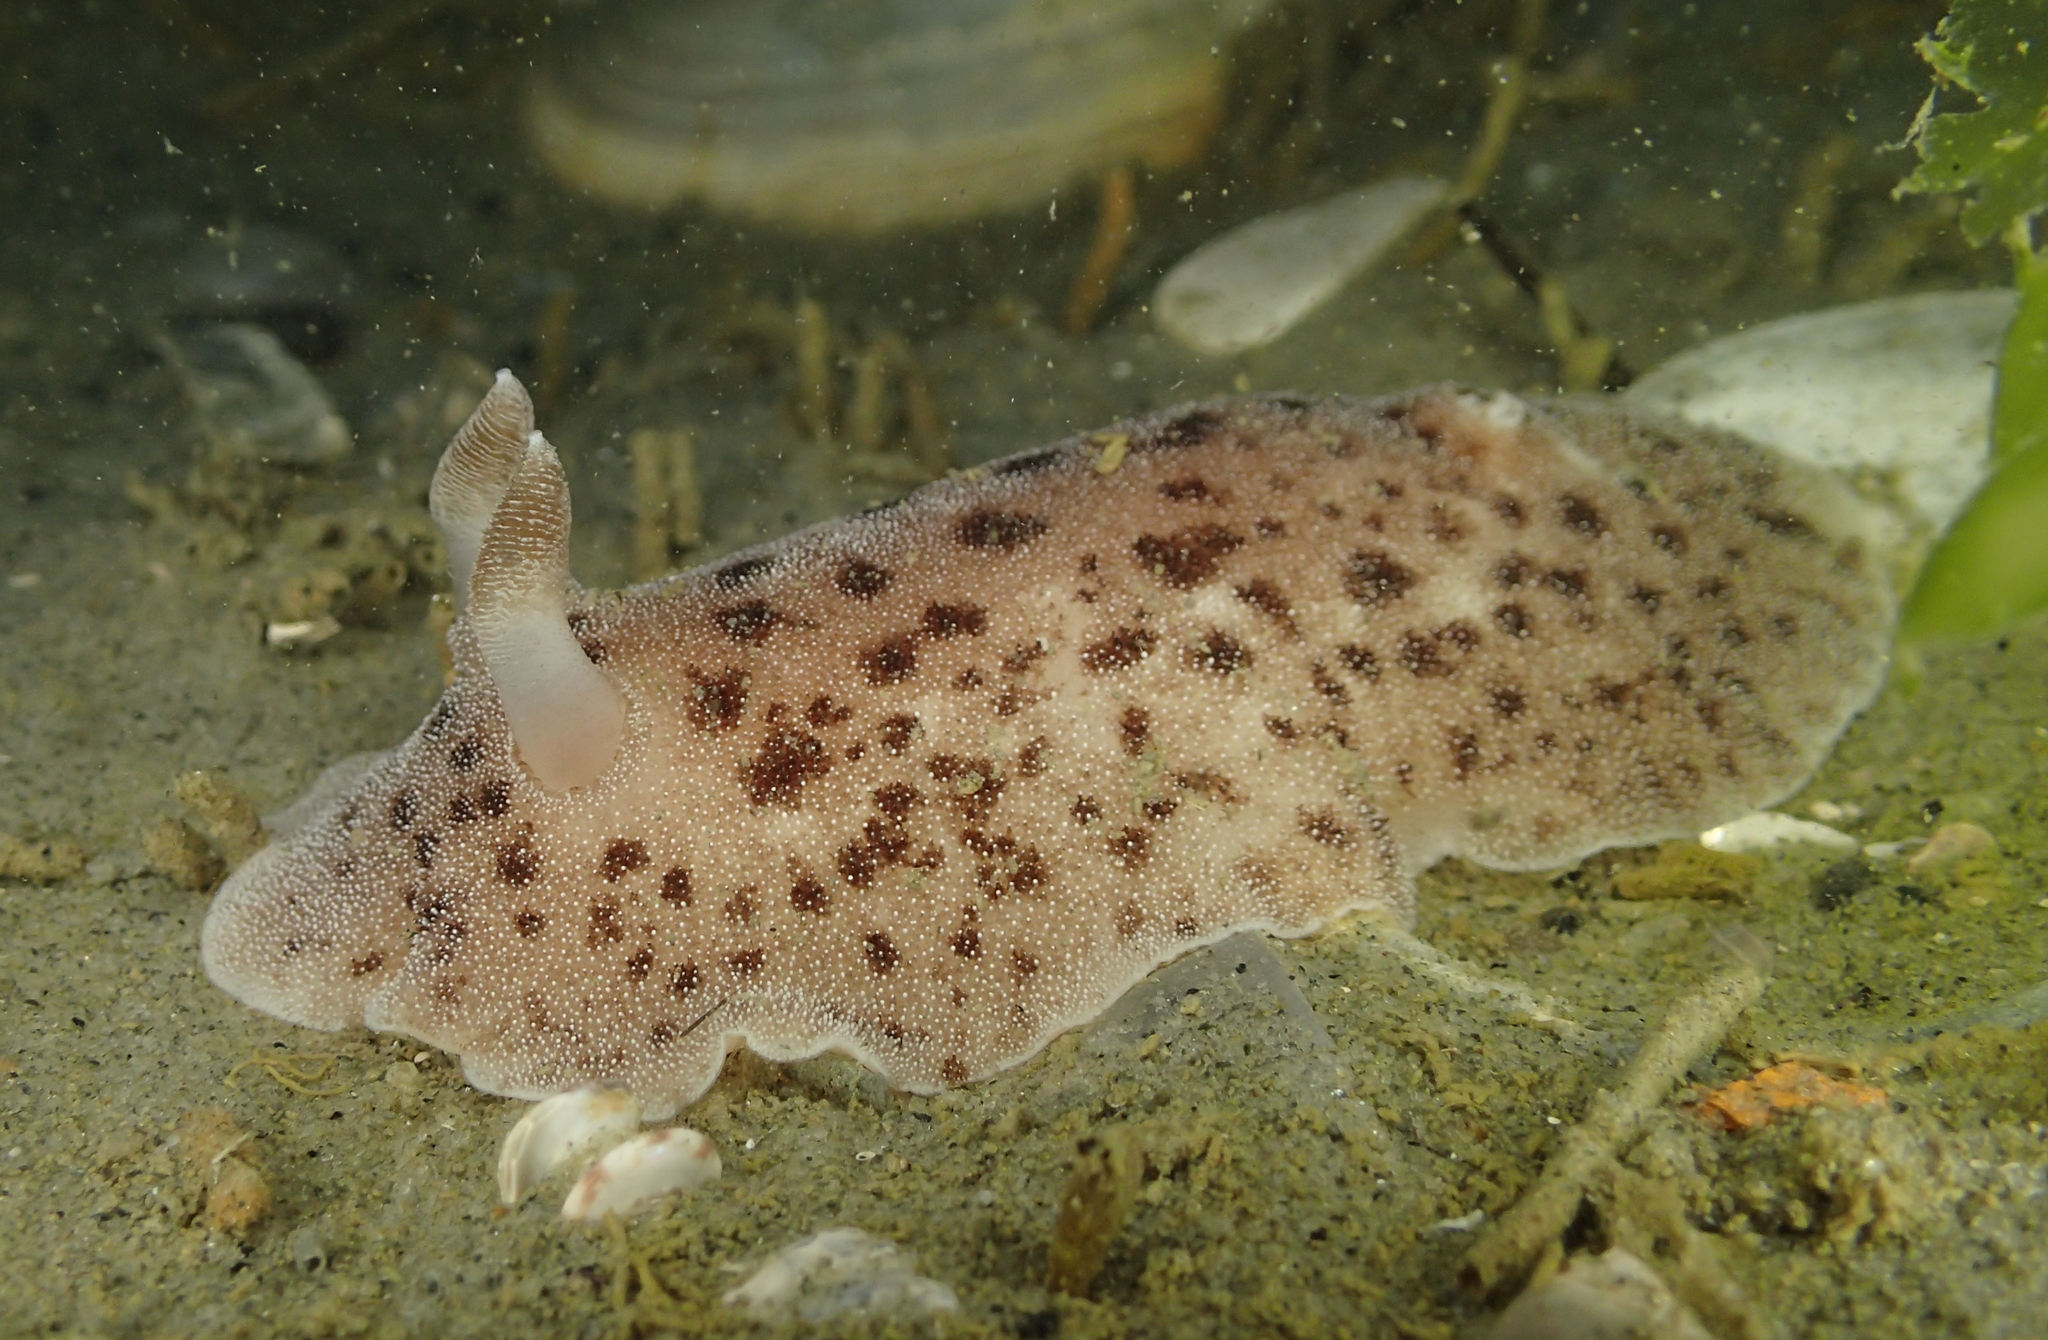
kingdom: Animalia
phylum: Mollusca
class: Gastropoda
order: Nudibranchia
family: Discodorididae
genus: Alloiodoris
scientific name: Alloiodoris lanuginata
